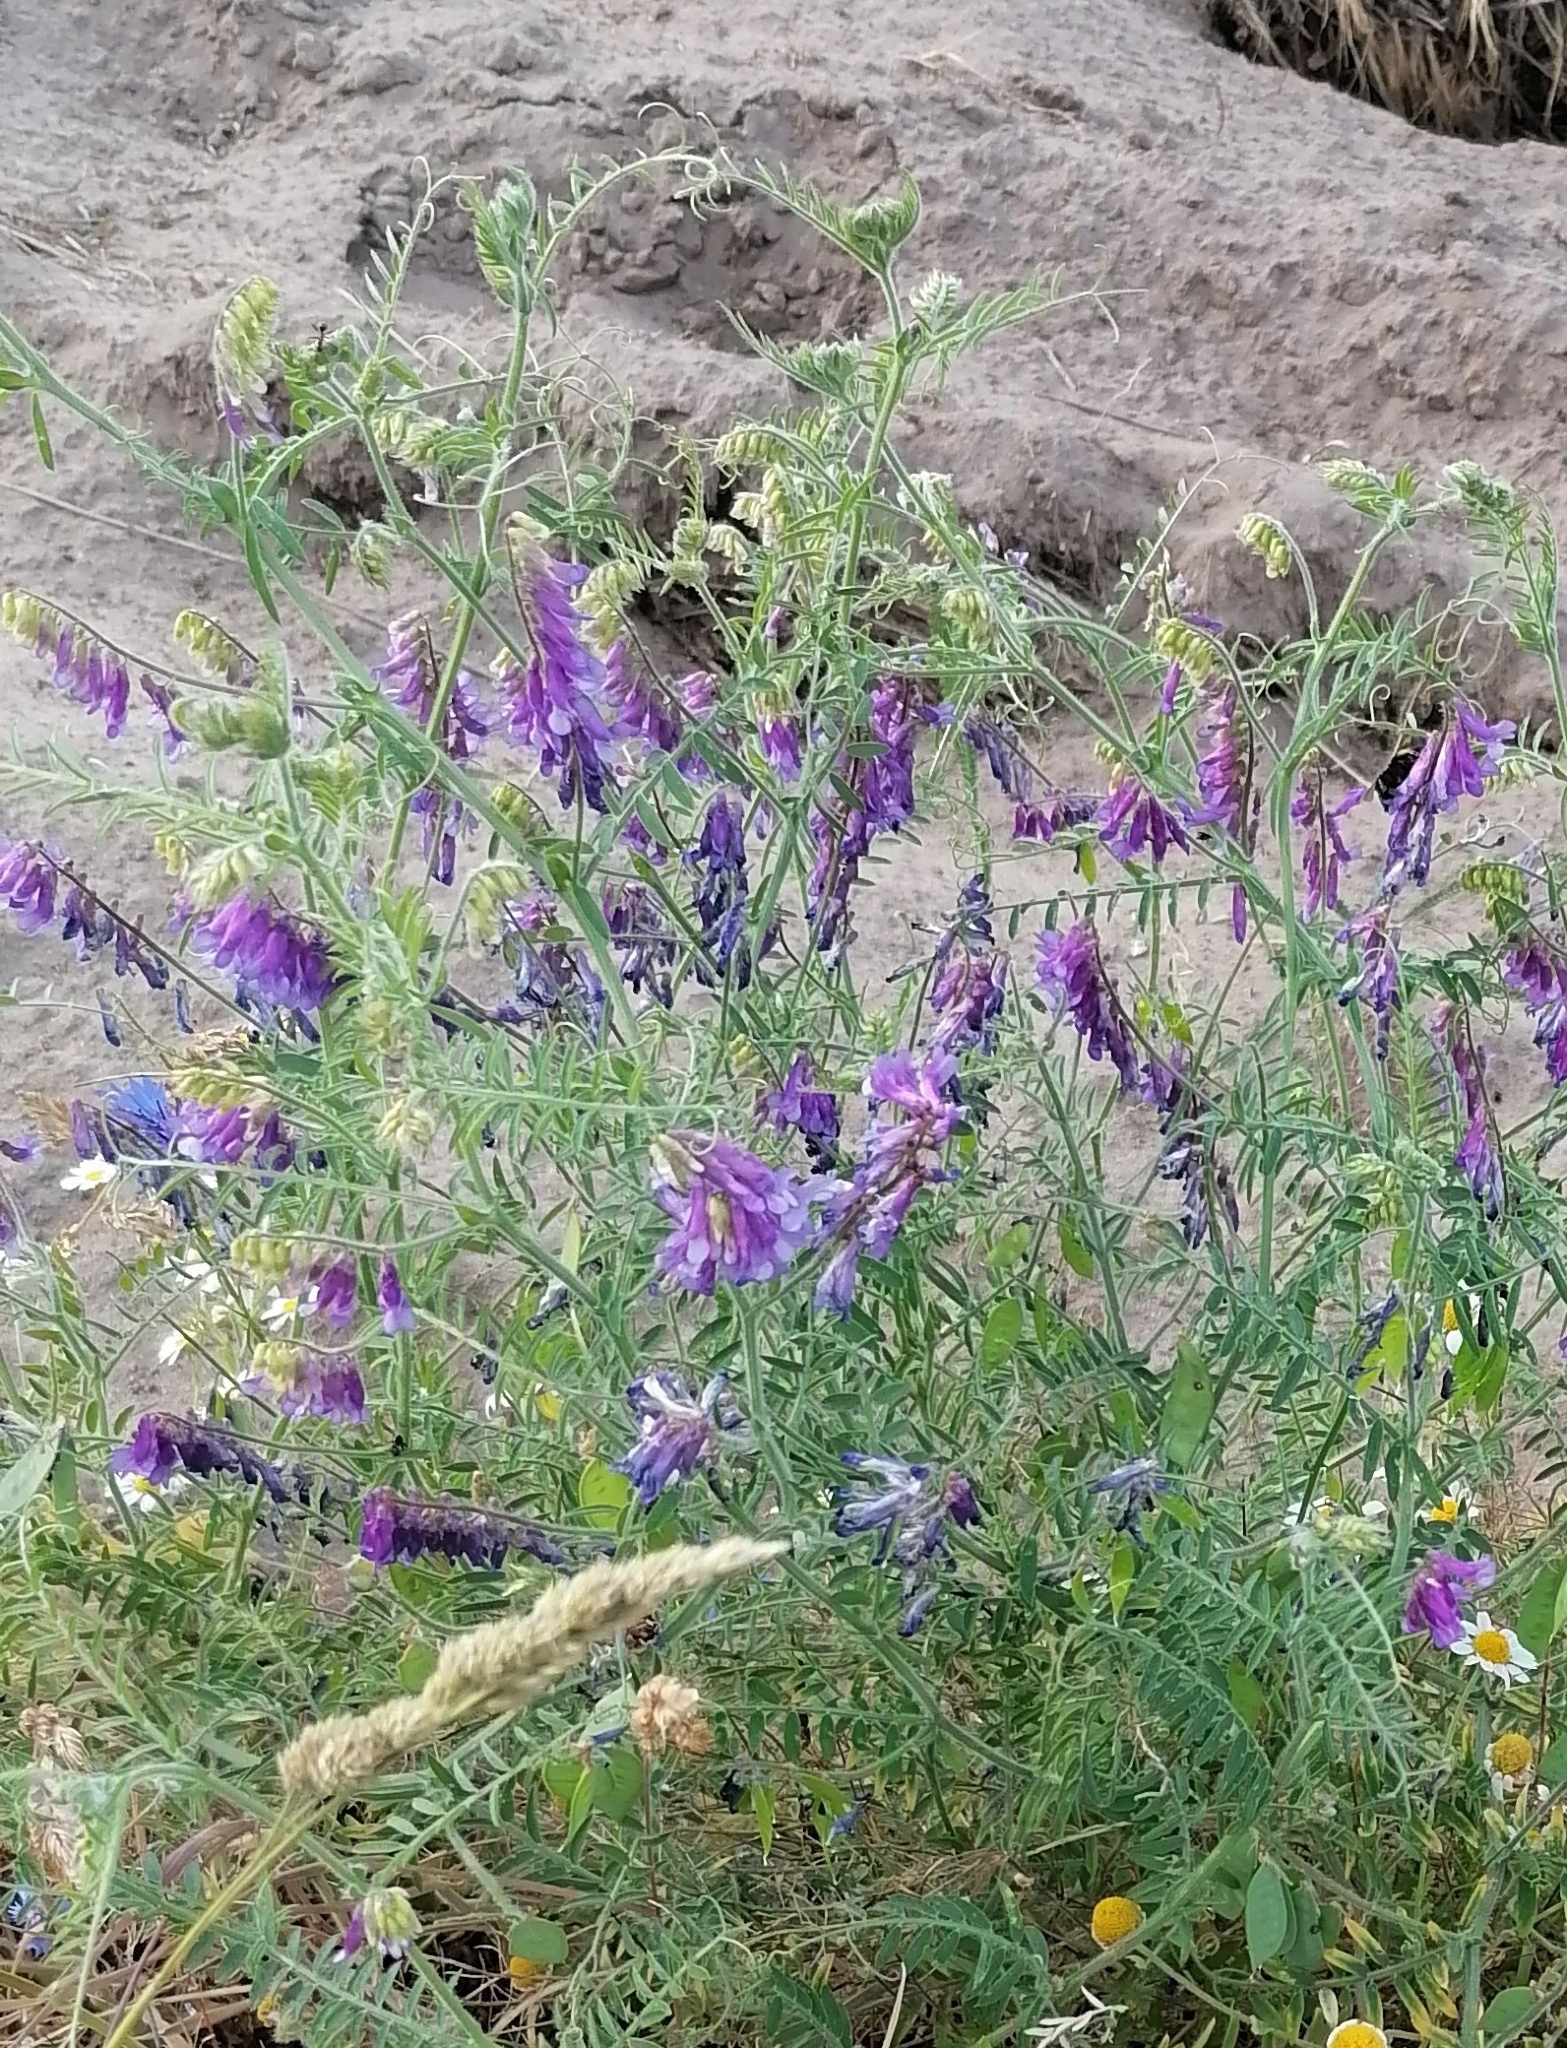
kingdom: Plantae
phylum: Tracheophyta
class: Magnoliopsida
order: Fabales
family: Fabaceae
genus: Vicia
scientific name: Vicia villosa
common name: Fodder vetch
